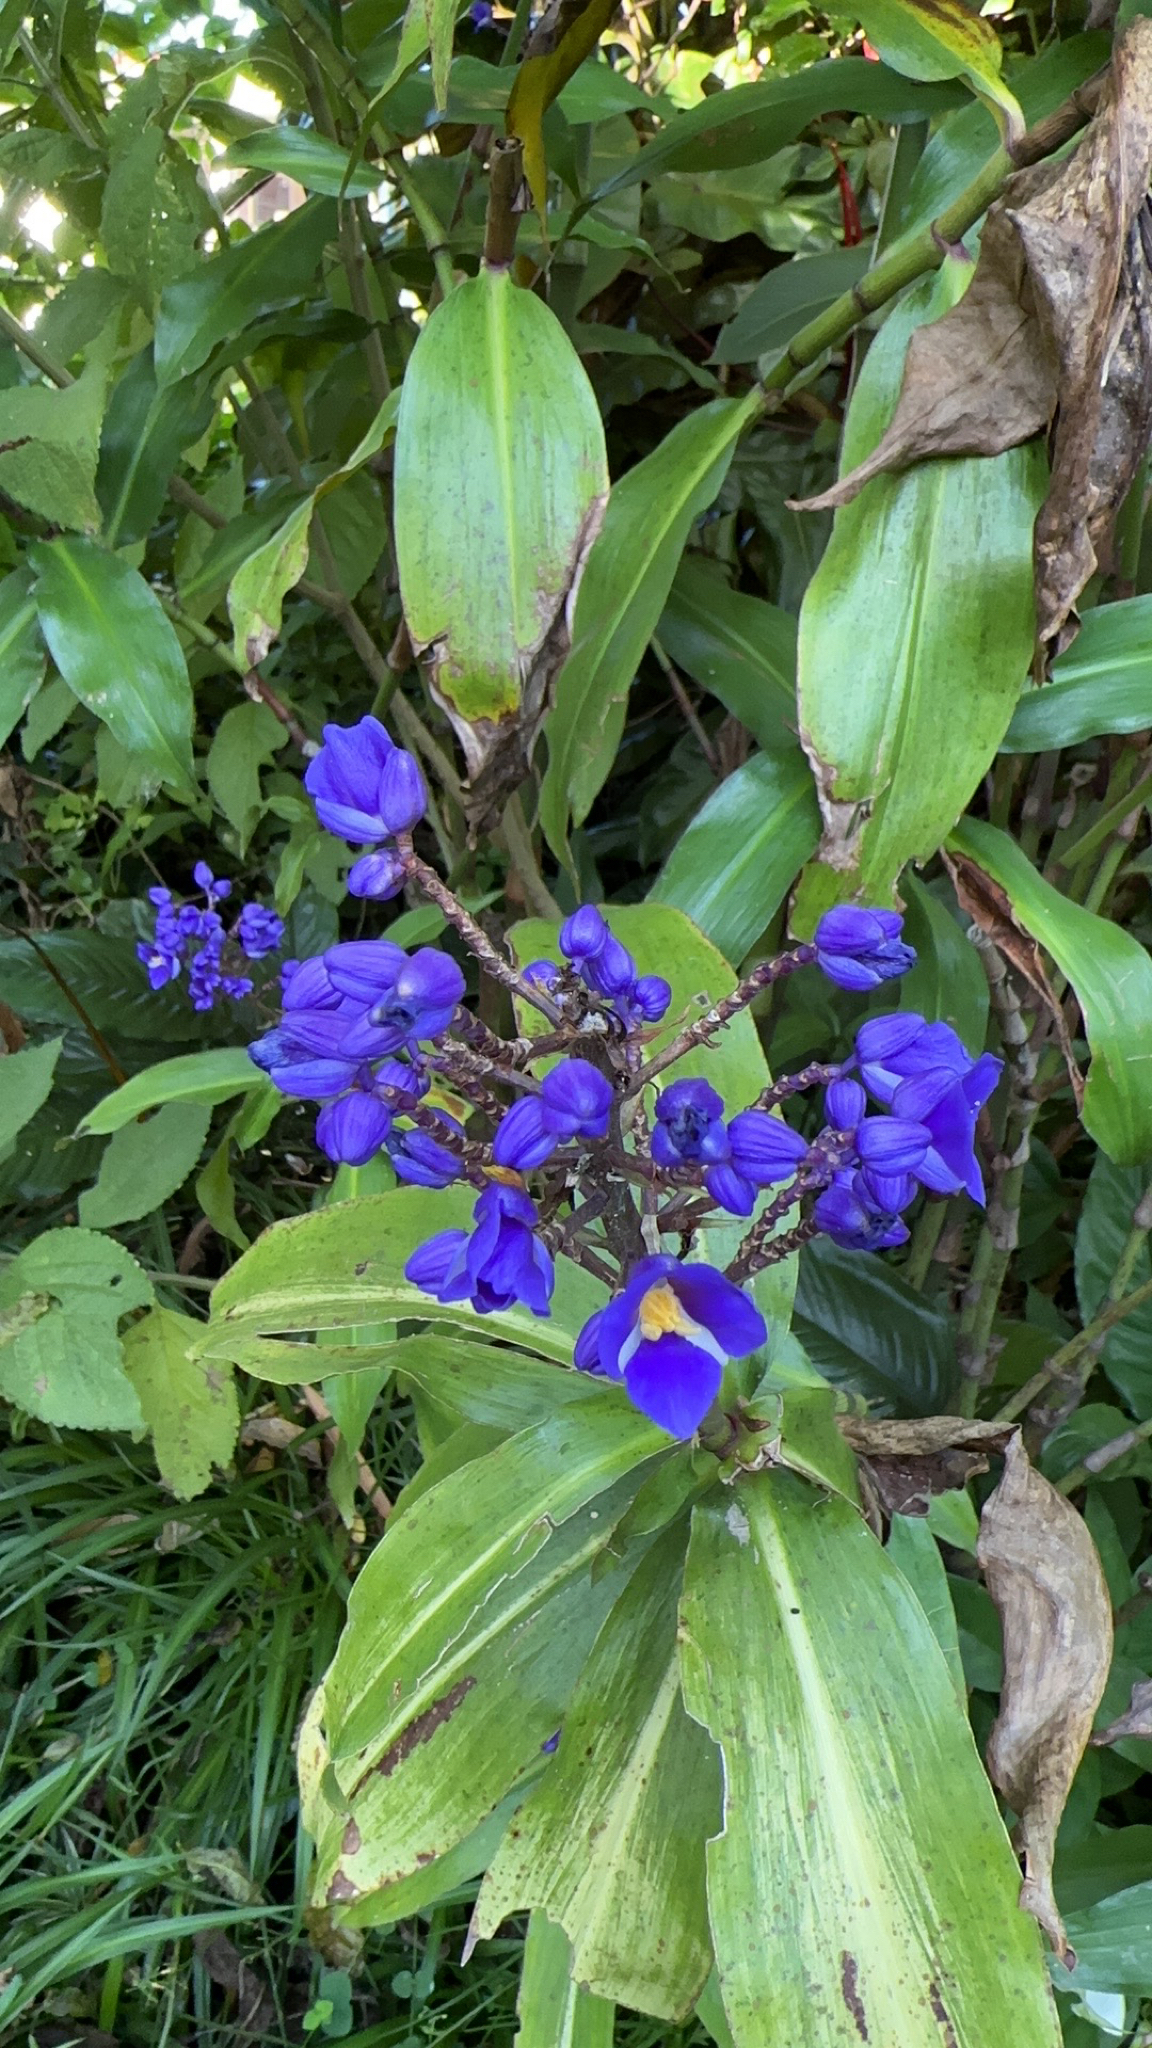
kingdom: Plantae
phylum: Tracheophyta
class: Liliopsida
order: Commelinales
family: Commelinaceae
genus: Dichorisandra
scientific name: Dichorisandra thyrsiflora
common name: Blue-ginger
